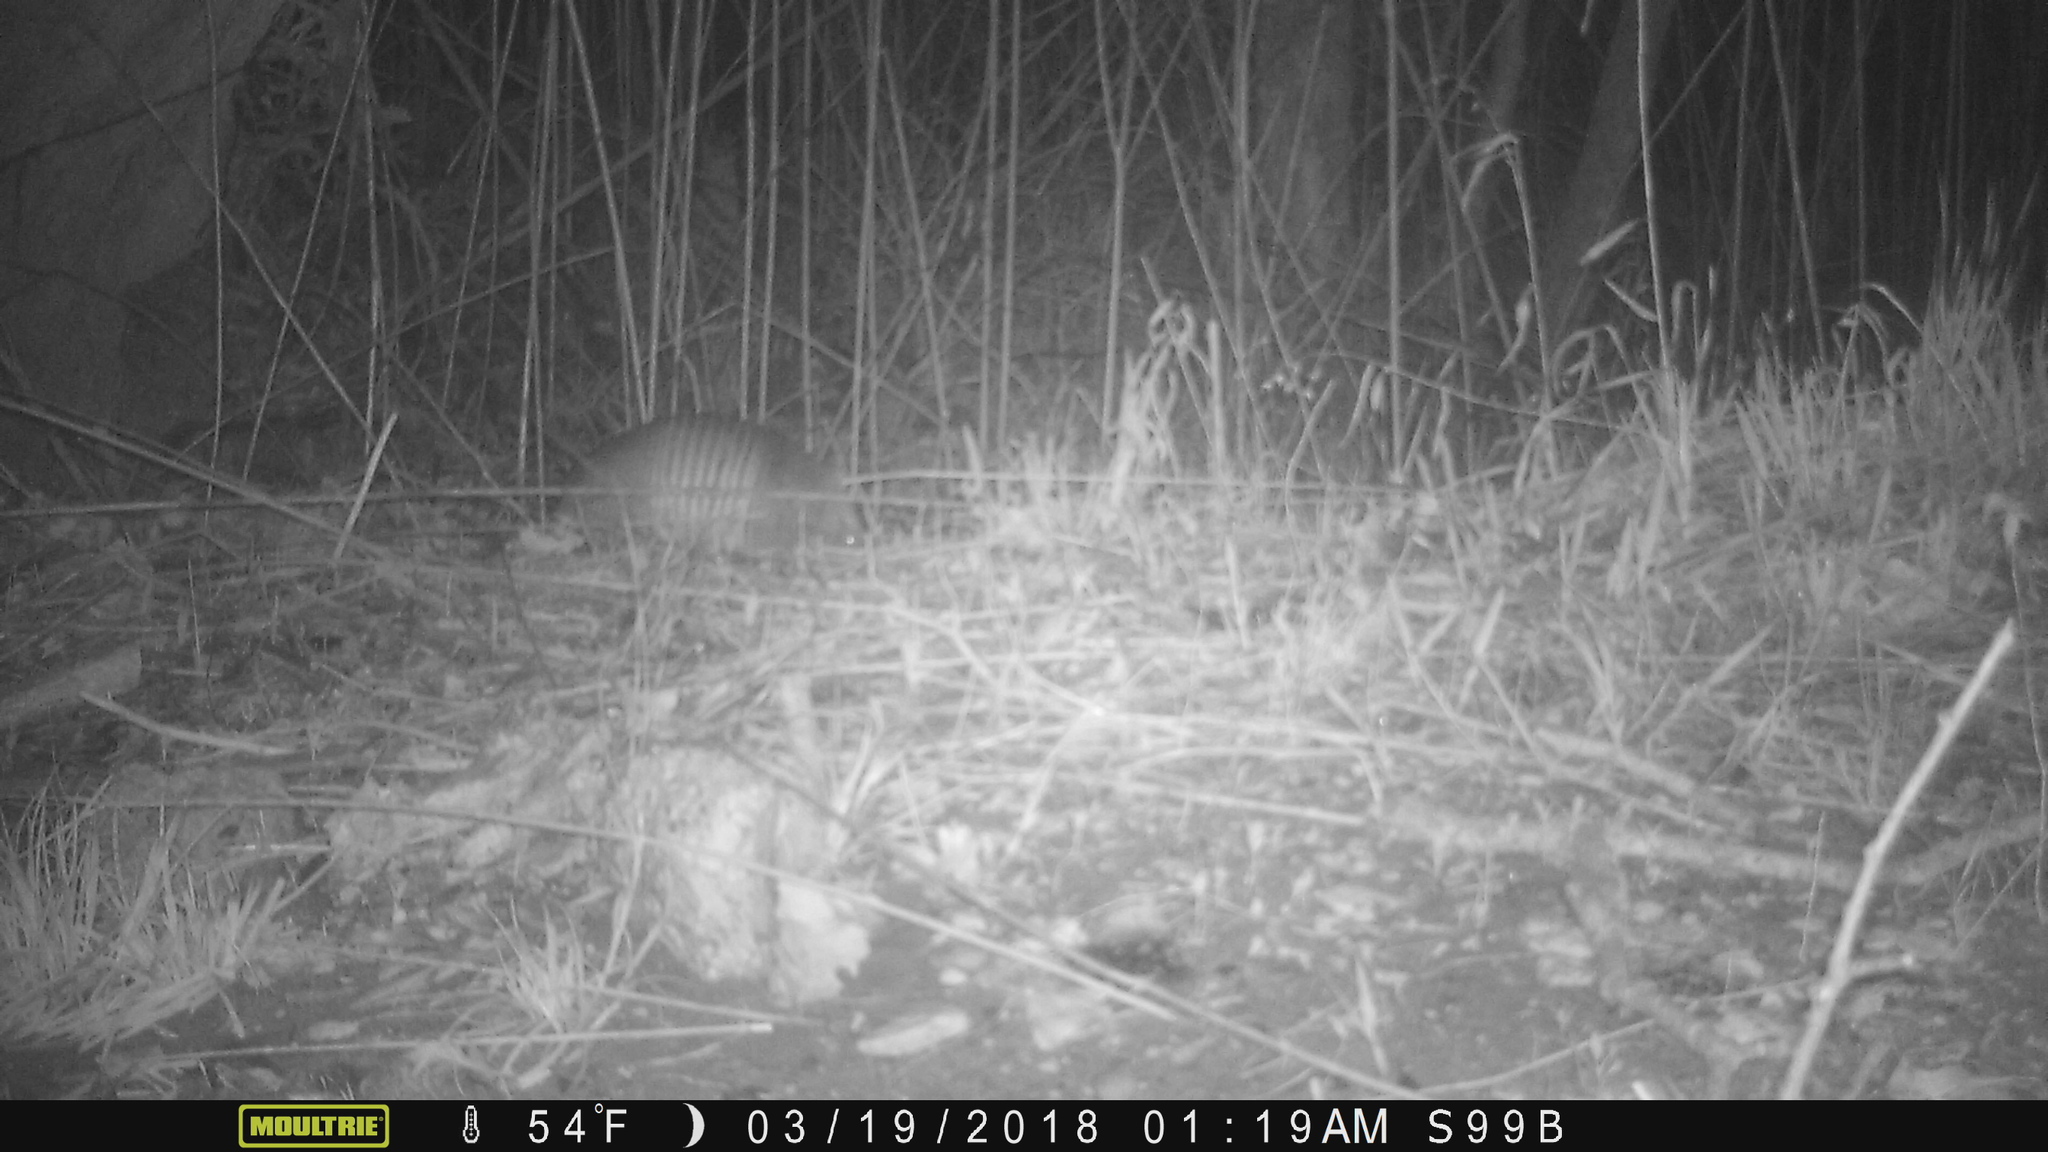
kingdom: Animalia
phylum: Chordata
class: Mammalia
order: Cingulata
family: Dasypodidae
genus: Dasypus
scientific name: Dasypus novemcinctus
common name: Nine-banded armadillo
